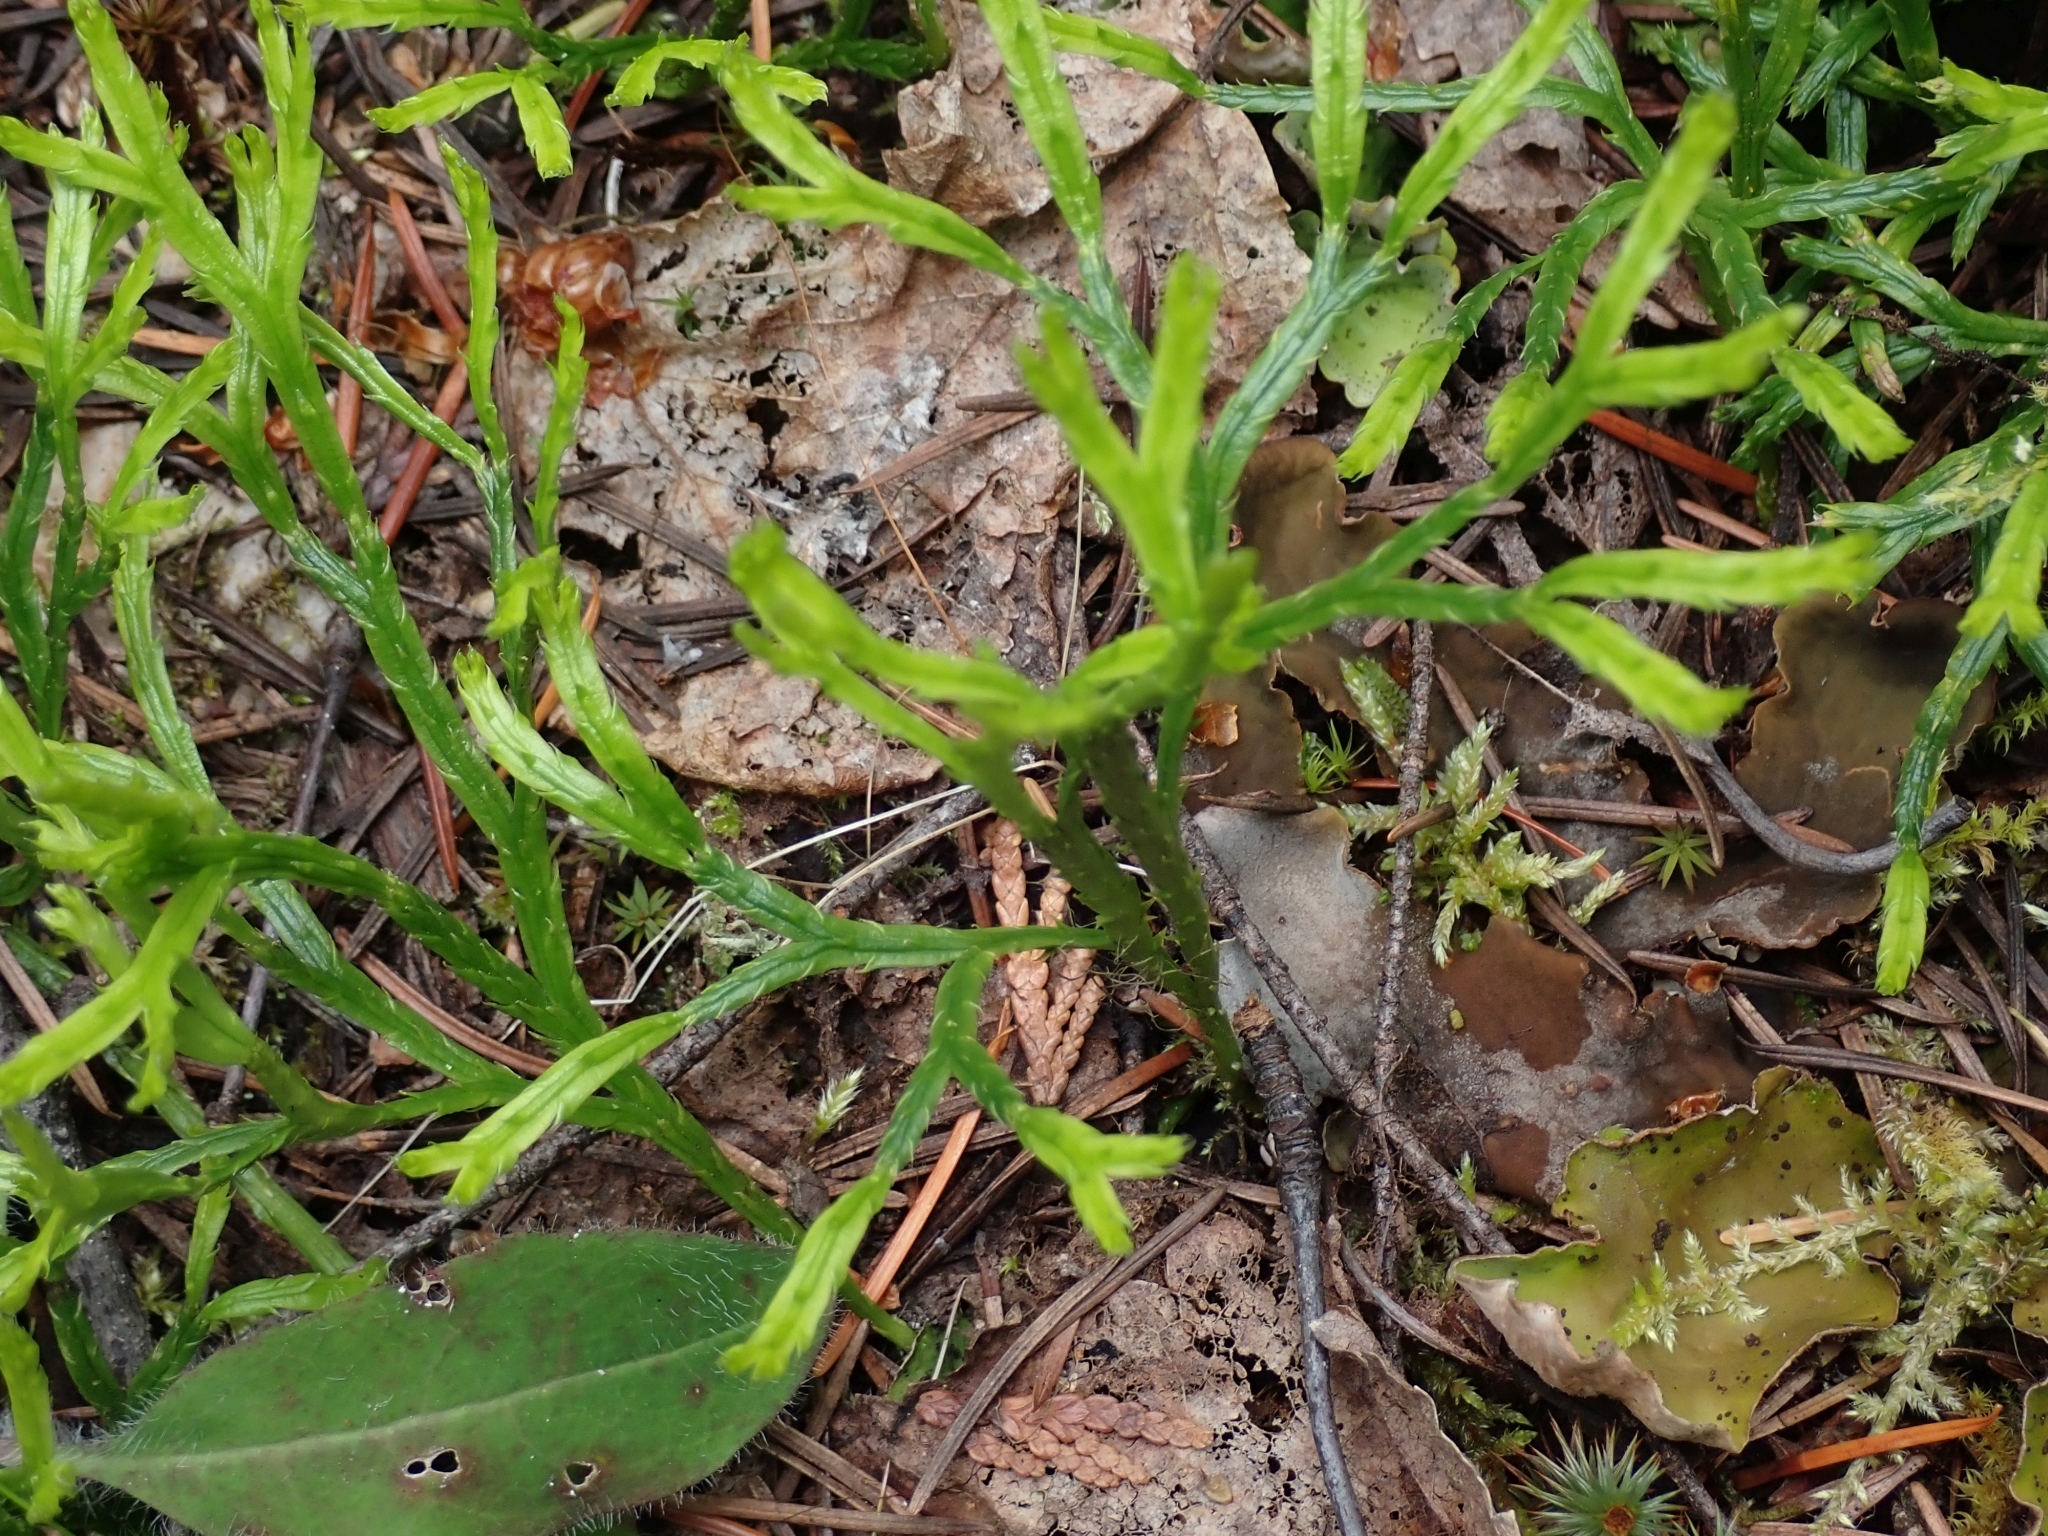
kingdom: Plantae
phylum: Tracheophyta
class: Lycopodiopsida
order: Lycopodiales
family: Lycopodiaceae
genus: Diphasiastrum
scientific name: Diphasiastrum complanatum
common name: Northern running-pine
